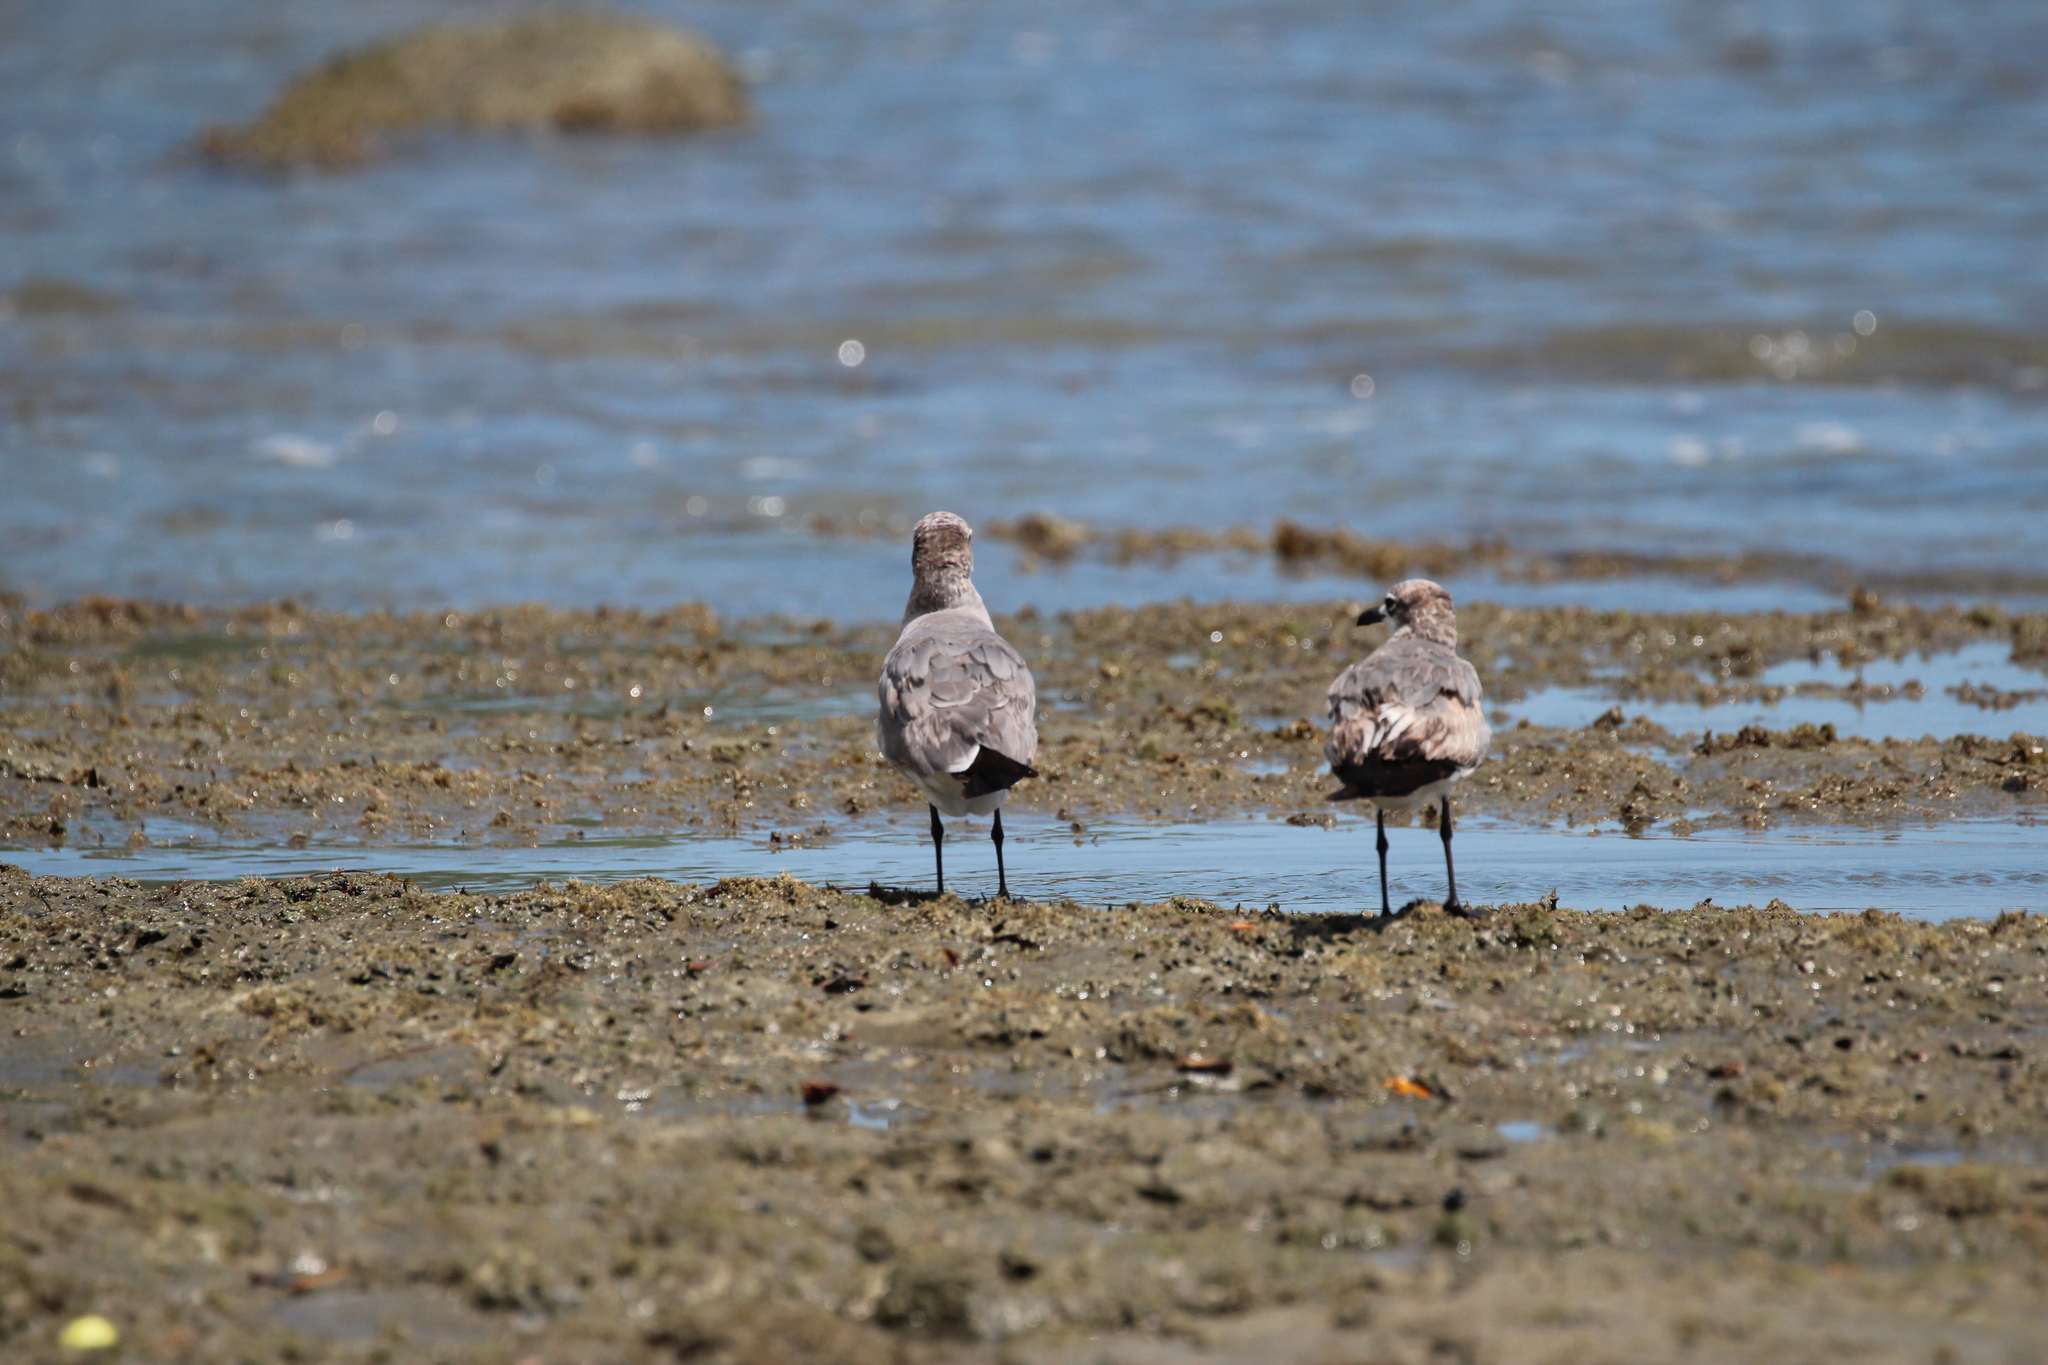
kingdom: Animalia
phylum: Chordata
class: Aves
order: Charadriiformes
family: Laridae
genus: Leucophaeus
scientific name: Leucophaeus atricilla
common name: Laughing gull
